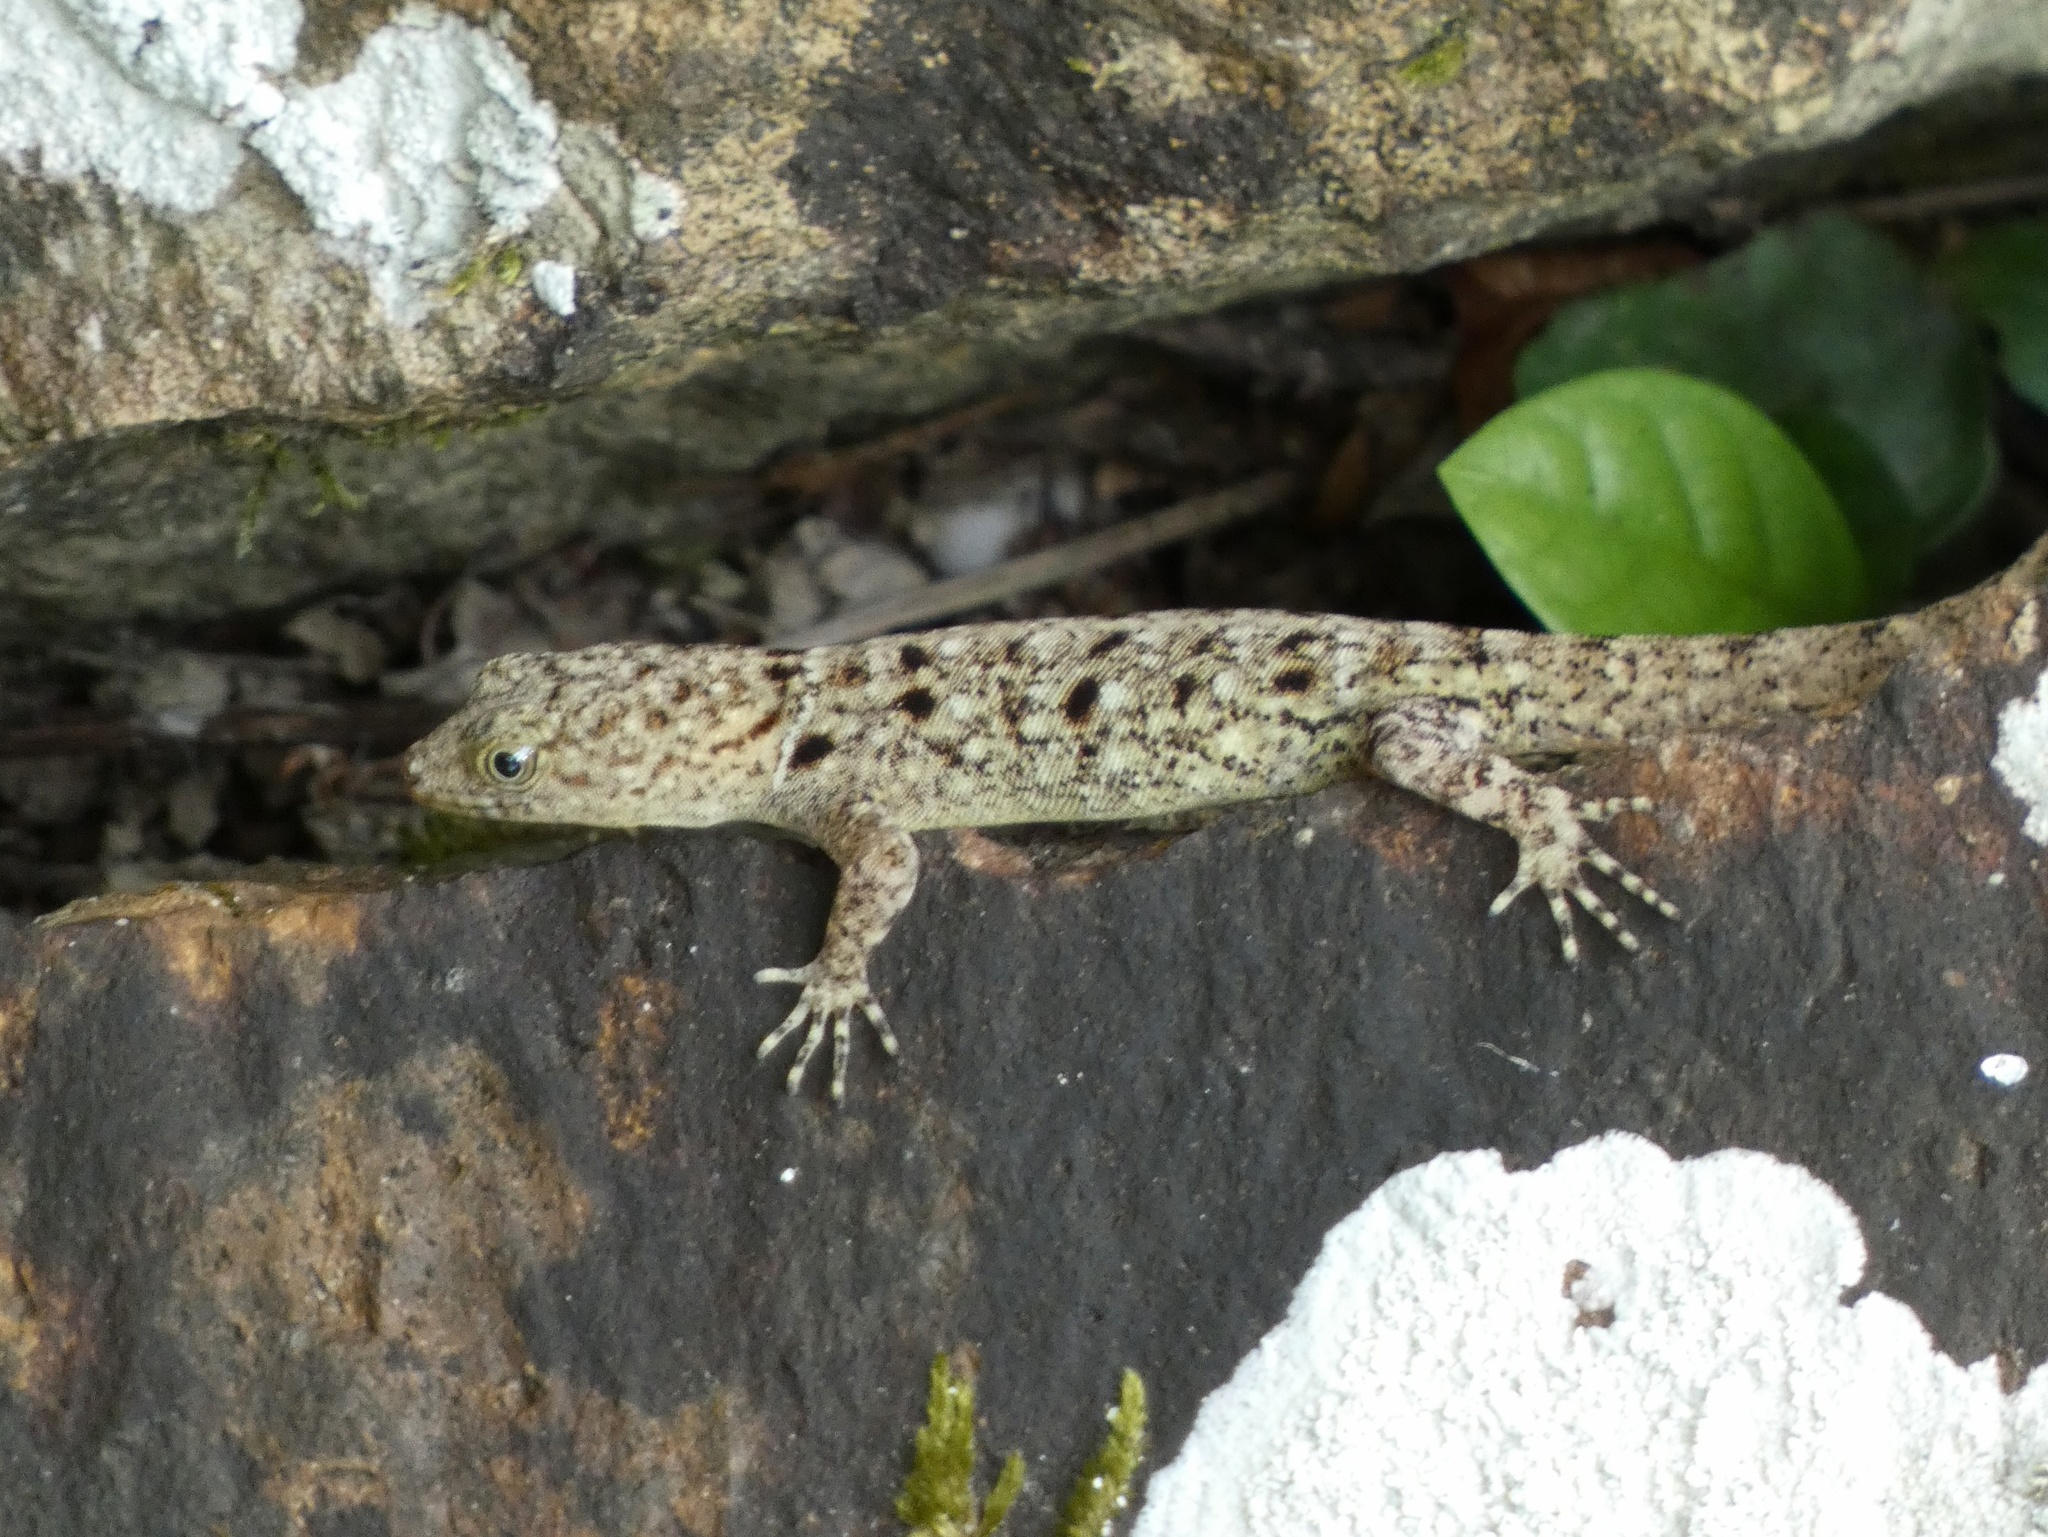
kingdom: Animalia
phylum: Chordata
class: Squamata
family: Sphaerodactylidae
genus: Gonatodes
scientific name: Gonatodes albogularis
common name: Yellow-headed gecko
